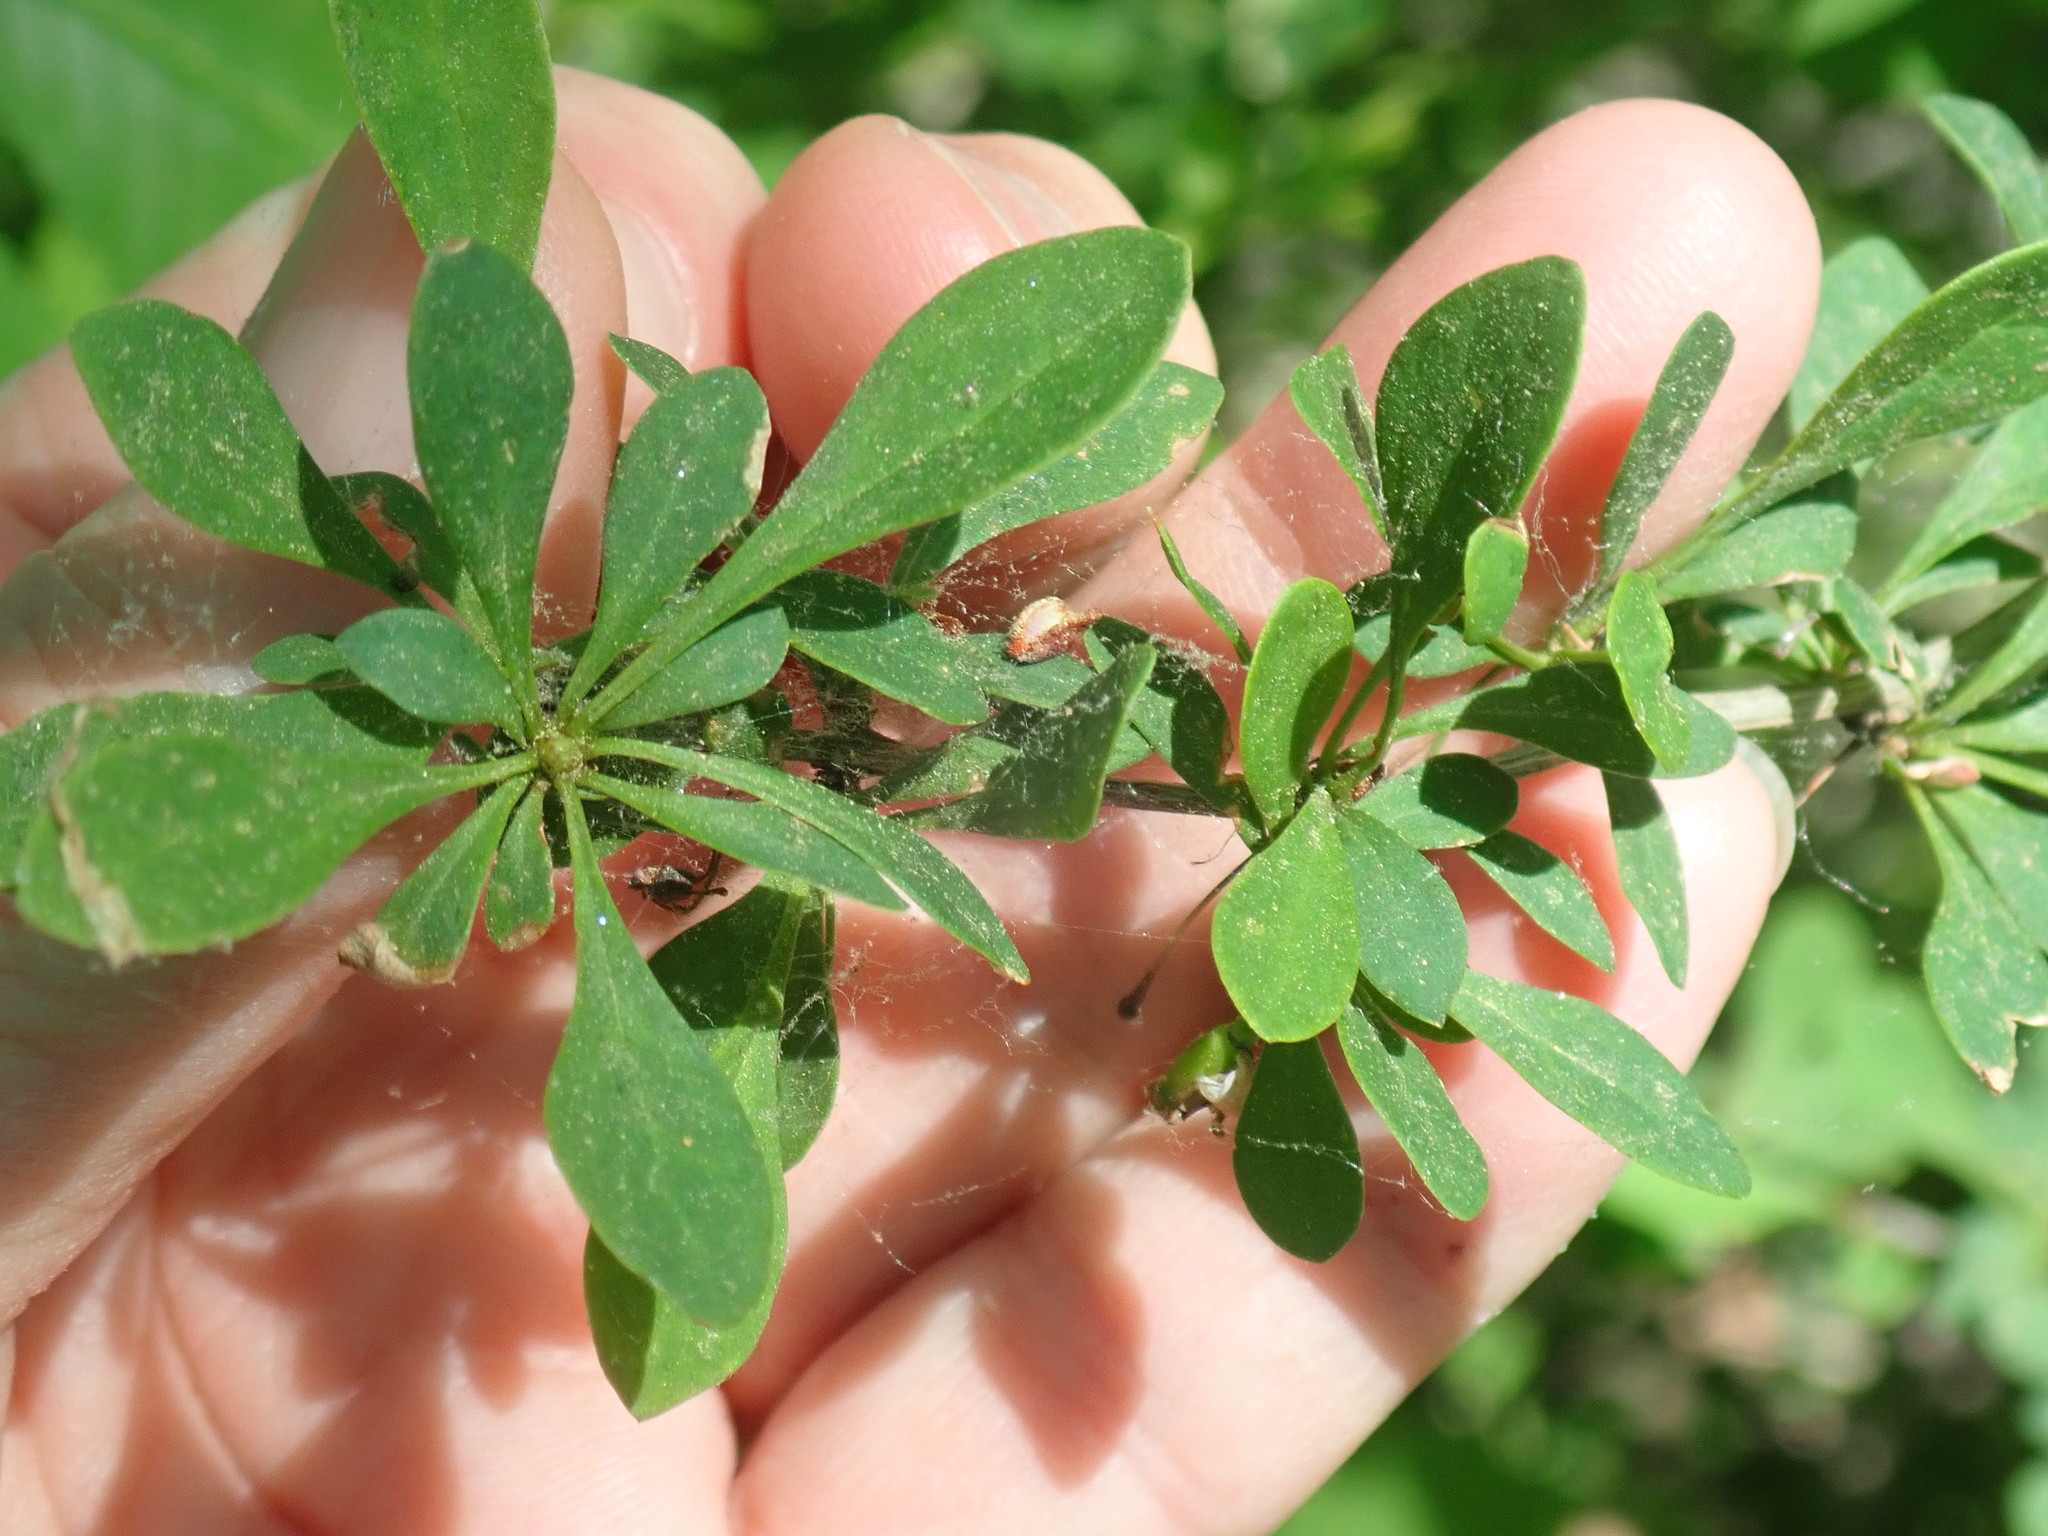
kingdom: Plantae
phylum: Tracheophyta
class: Magnoliopsida
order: Ranunculales
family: Berberidaceae
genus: Berberis
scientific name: Berberis thunbergii
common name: Japanese barberry
